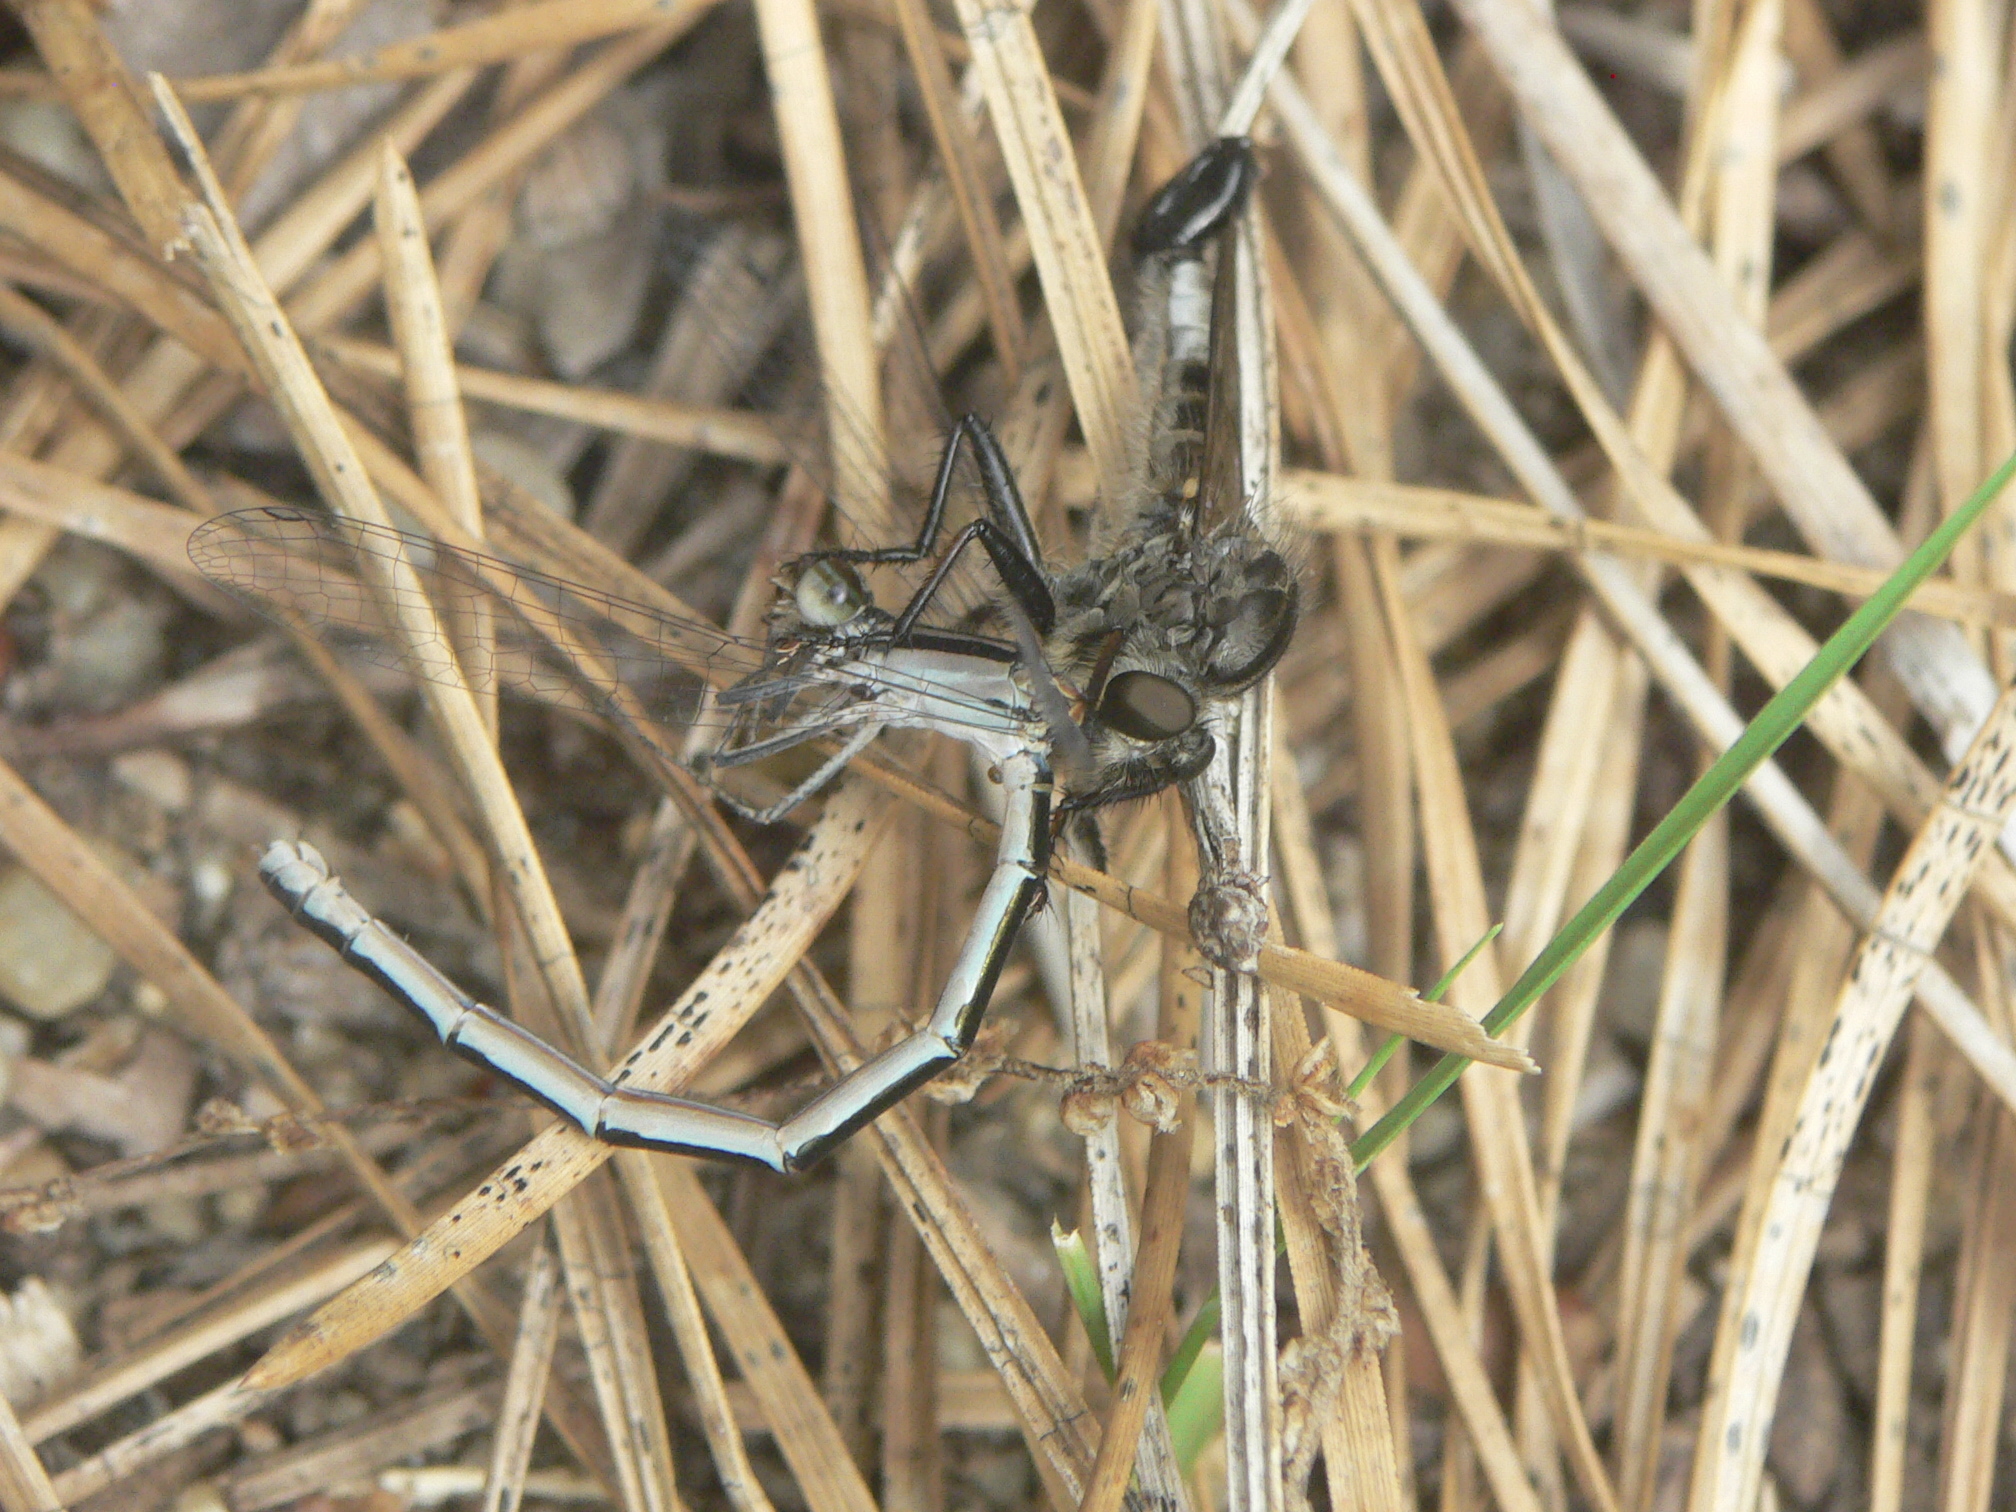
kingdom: Animalia
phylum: Arthropoda
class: Insecta
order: Diptera
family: Asilidae
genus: Efferia
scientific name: Efferia aestuans
